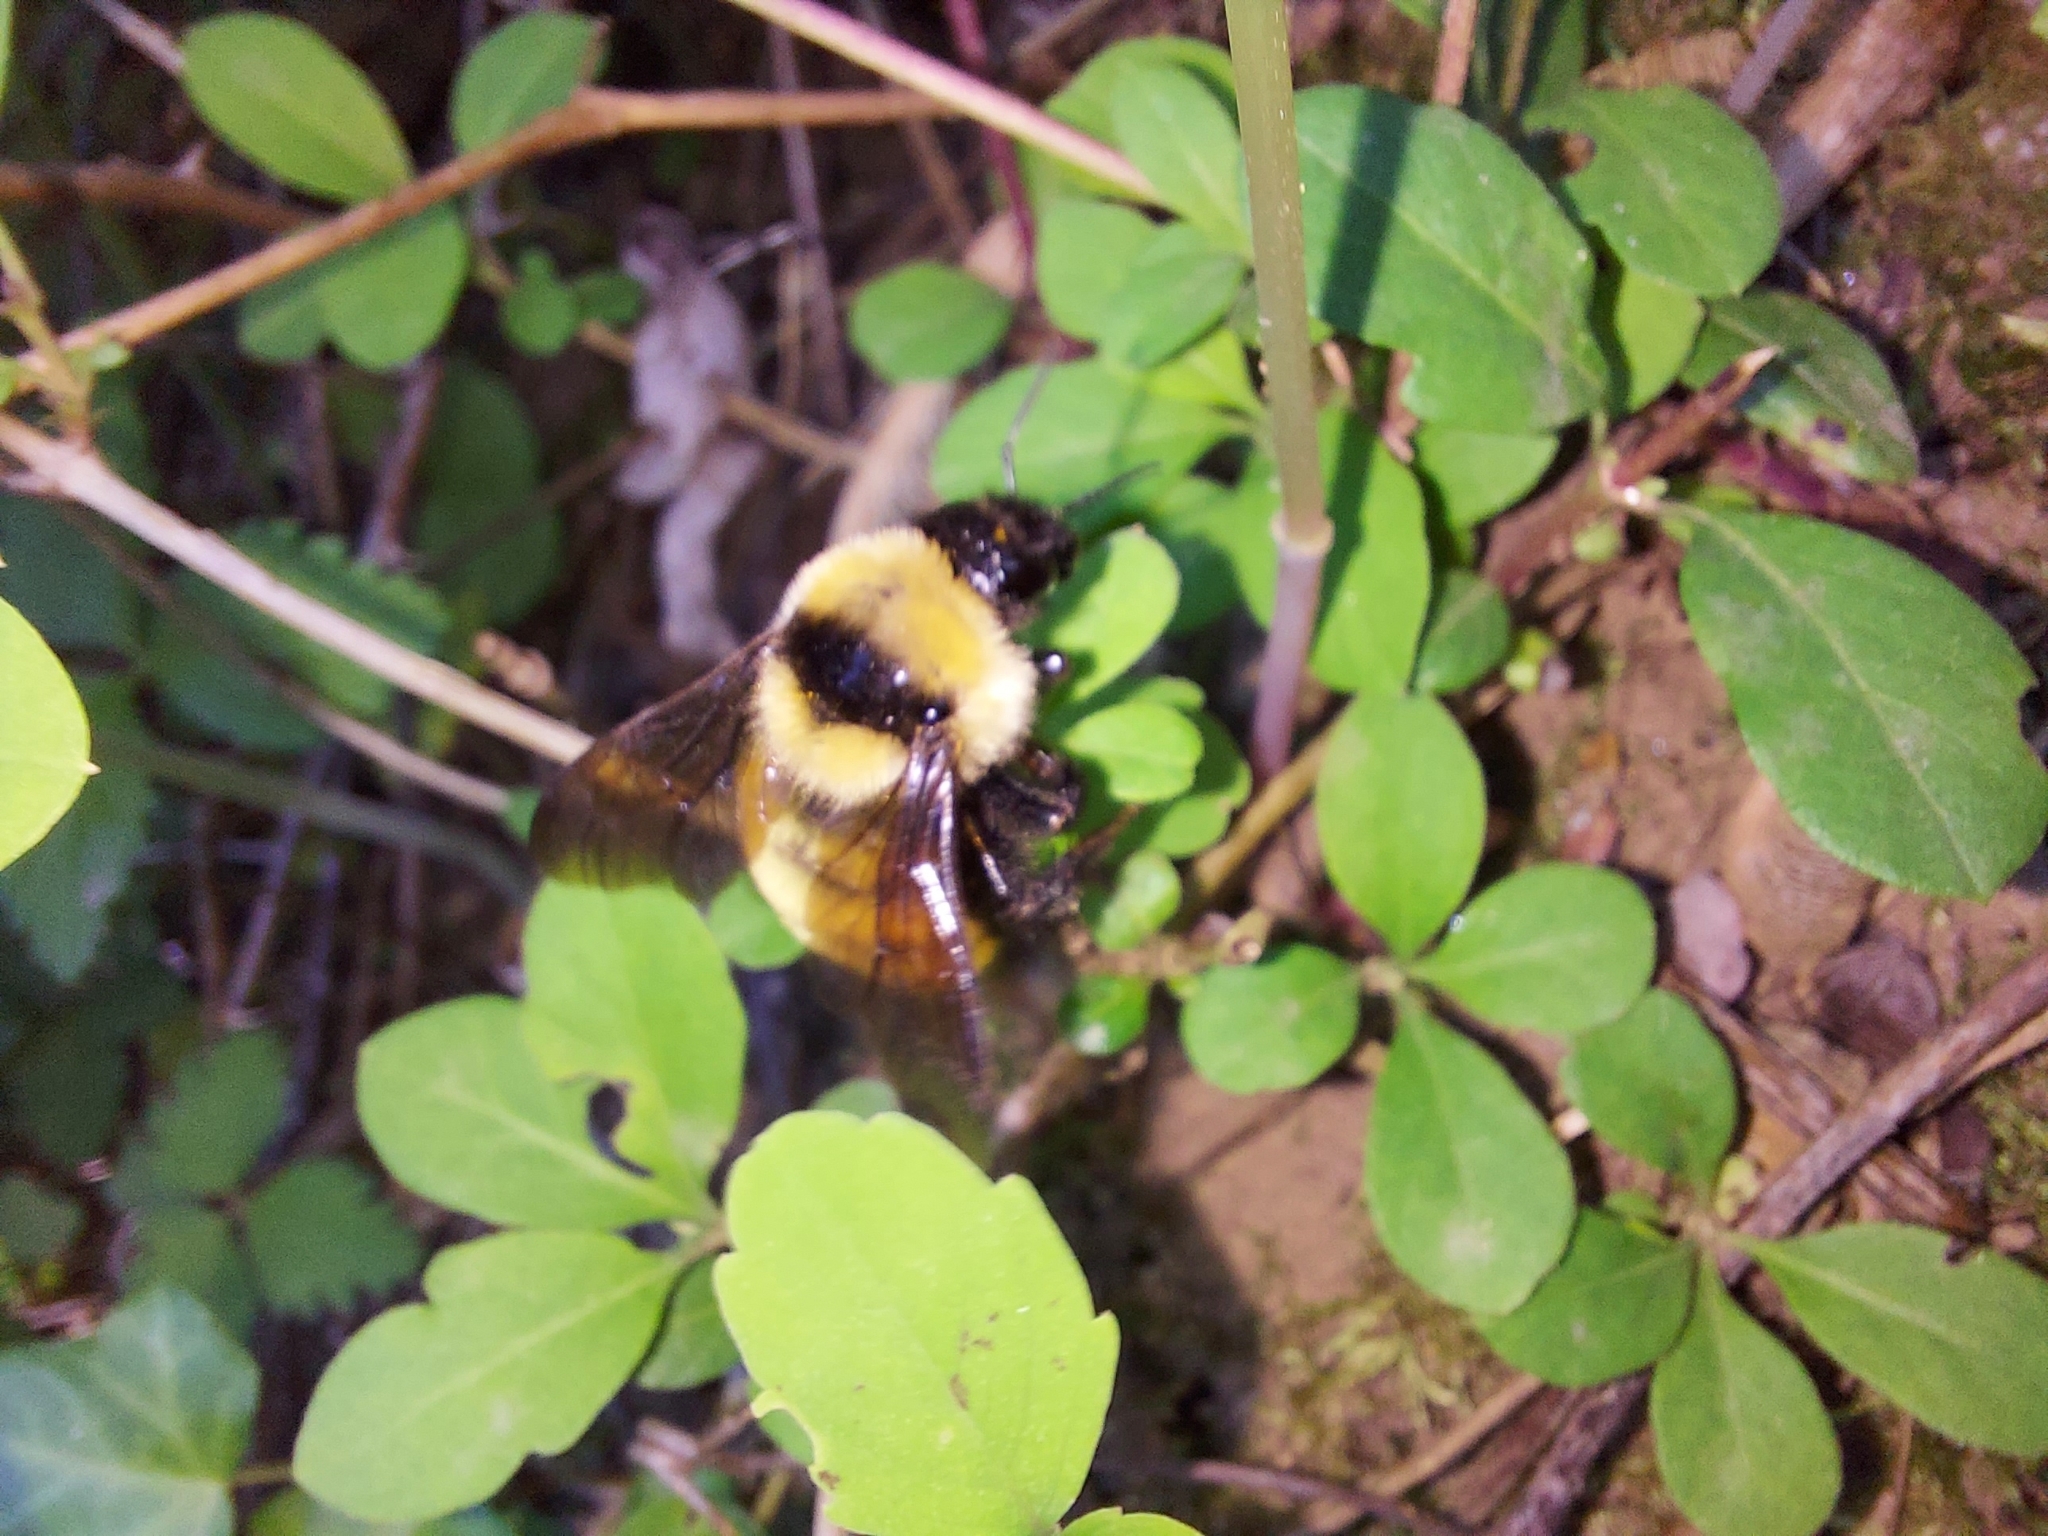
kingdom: Animalia
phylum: Arthropoda
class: Insecta
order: Hymenoptera
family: Apidae
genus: Bombus
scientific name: Bombus fervidus
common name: Yellow bumble bee
